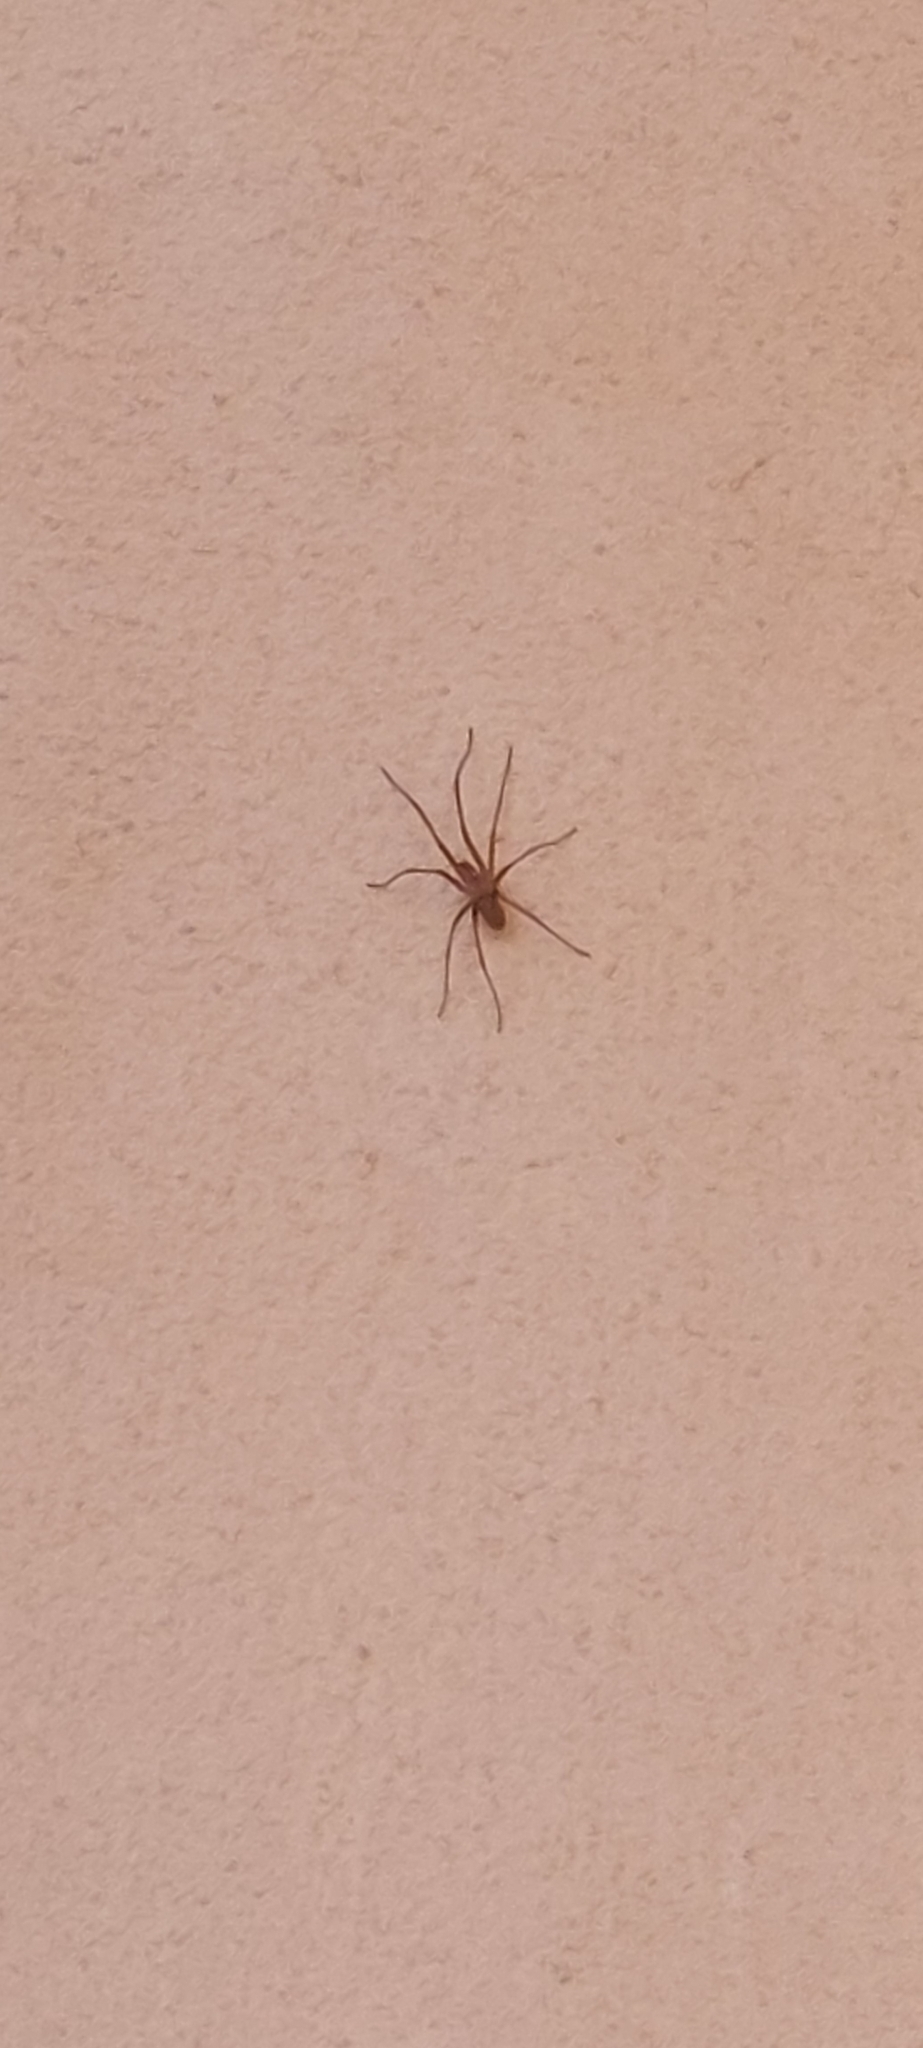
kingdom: Animalia
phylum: Arthropoda
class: Arachnida
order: Araneae
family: Filistatidae
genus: Kukulcania
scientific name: Kukulcania hibernalis
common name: Crevice weaver
